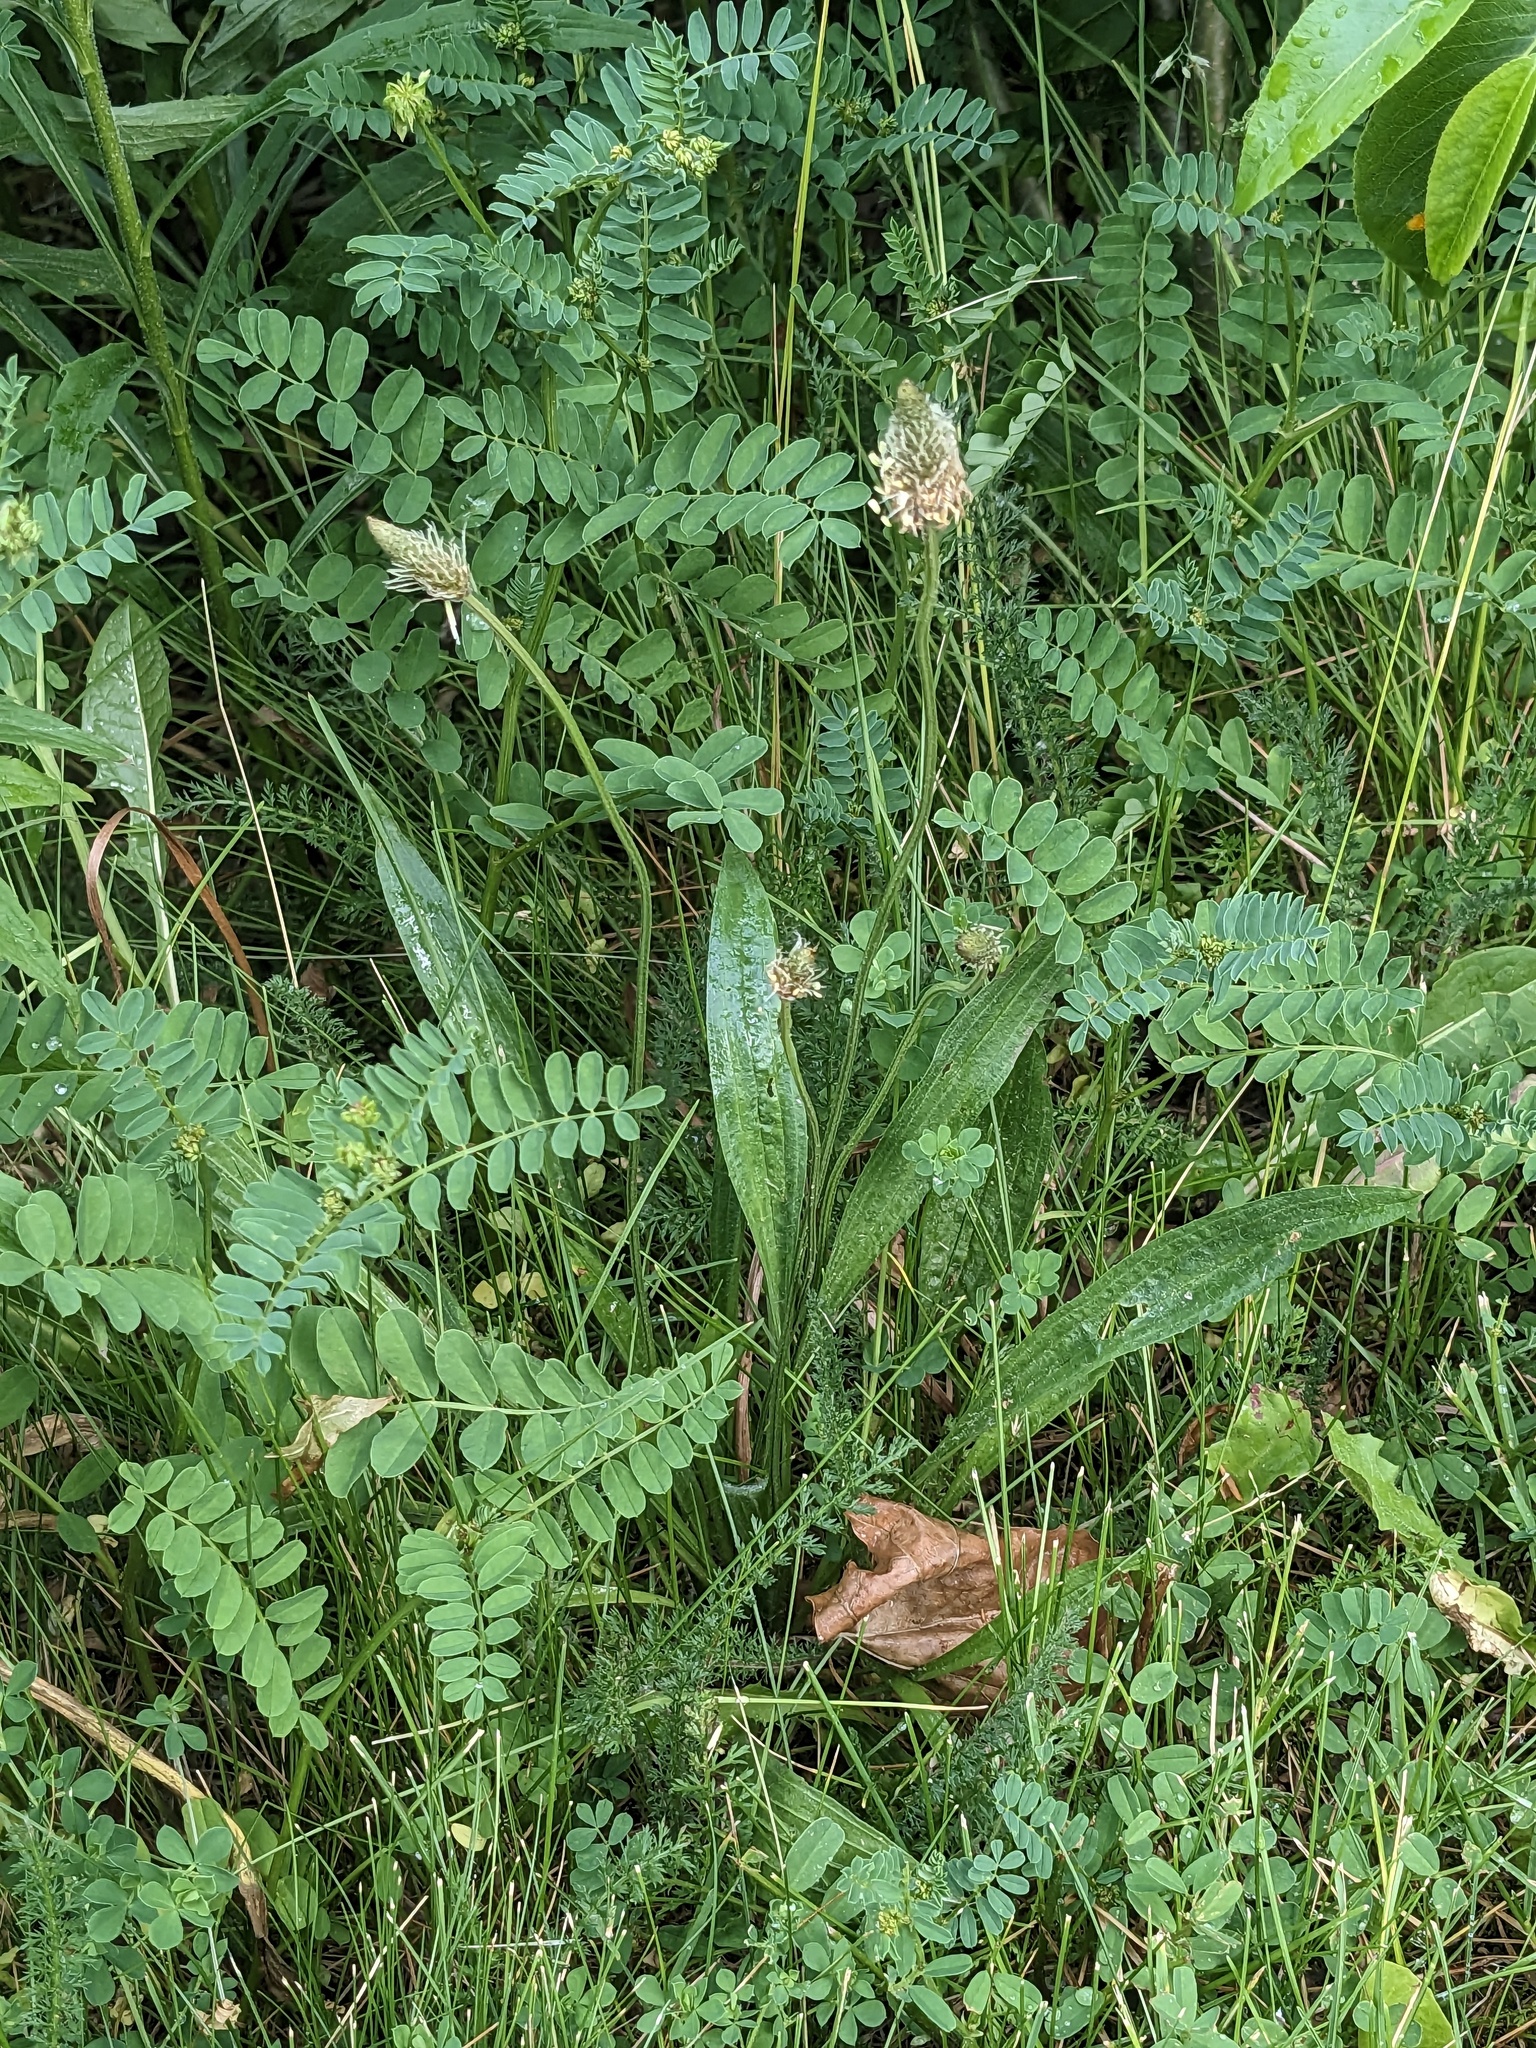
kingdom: Plantae
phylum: Tracheophyta
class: Magnoliopsida
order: Lamiales
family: Plantaginaceae
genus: Plantago
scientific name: Plantago lanceolata
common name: Ribwort plantain
